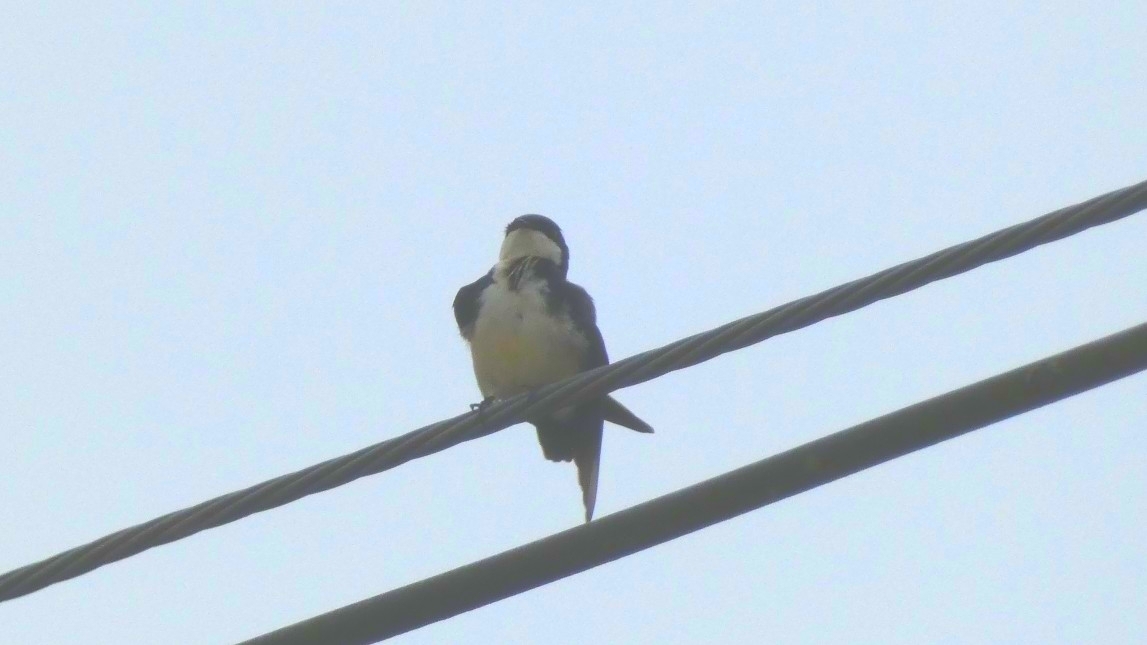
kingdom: Animalia
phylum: Chordata
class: Aves
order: Passeriformes
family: Hirundinidae
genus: Notiochelidon
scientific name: Notiochelidon cyanoleuca
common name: Blue-and-white swallow
